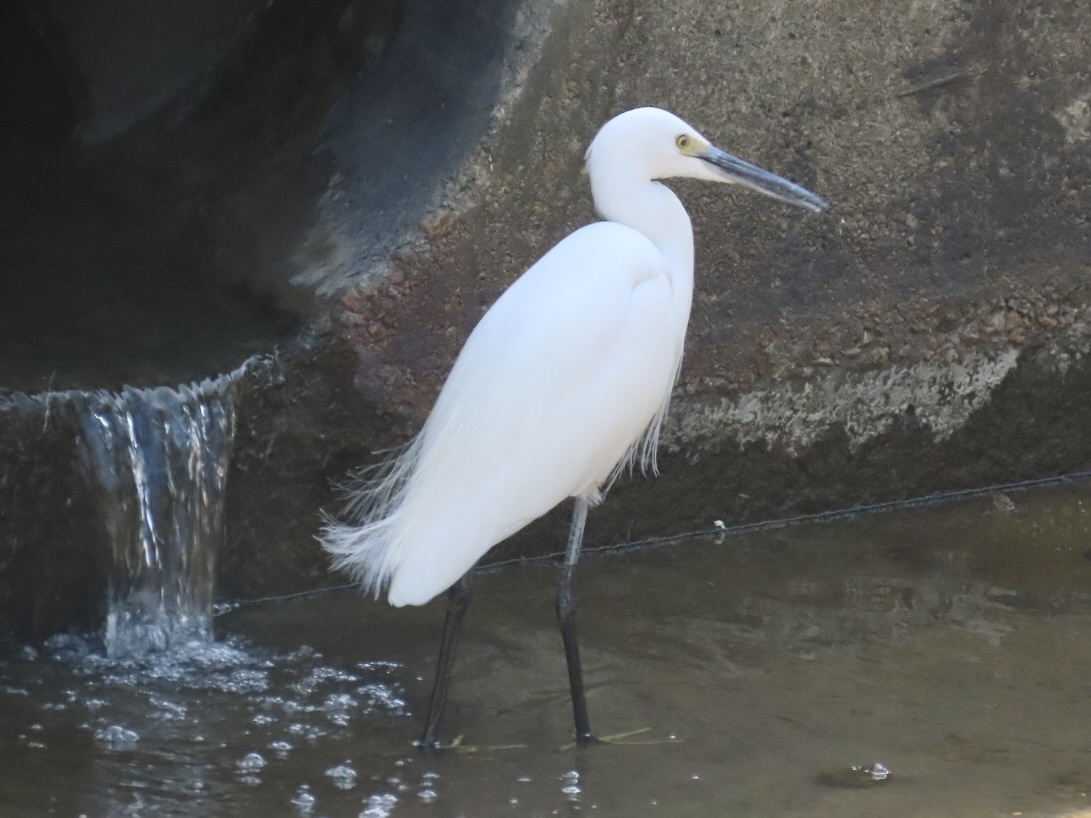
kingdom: Animalia
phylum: Chordata
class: Aves
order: Pelecaniformes
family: Ardeidae
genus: Egretta
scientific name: Egretta garzetta
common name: Little egret
